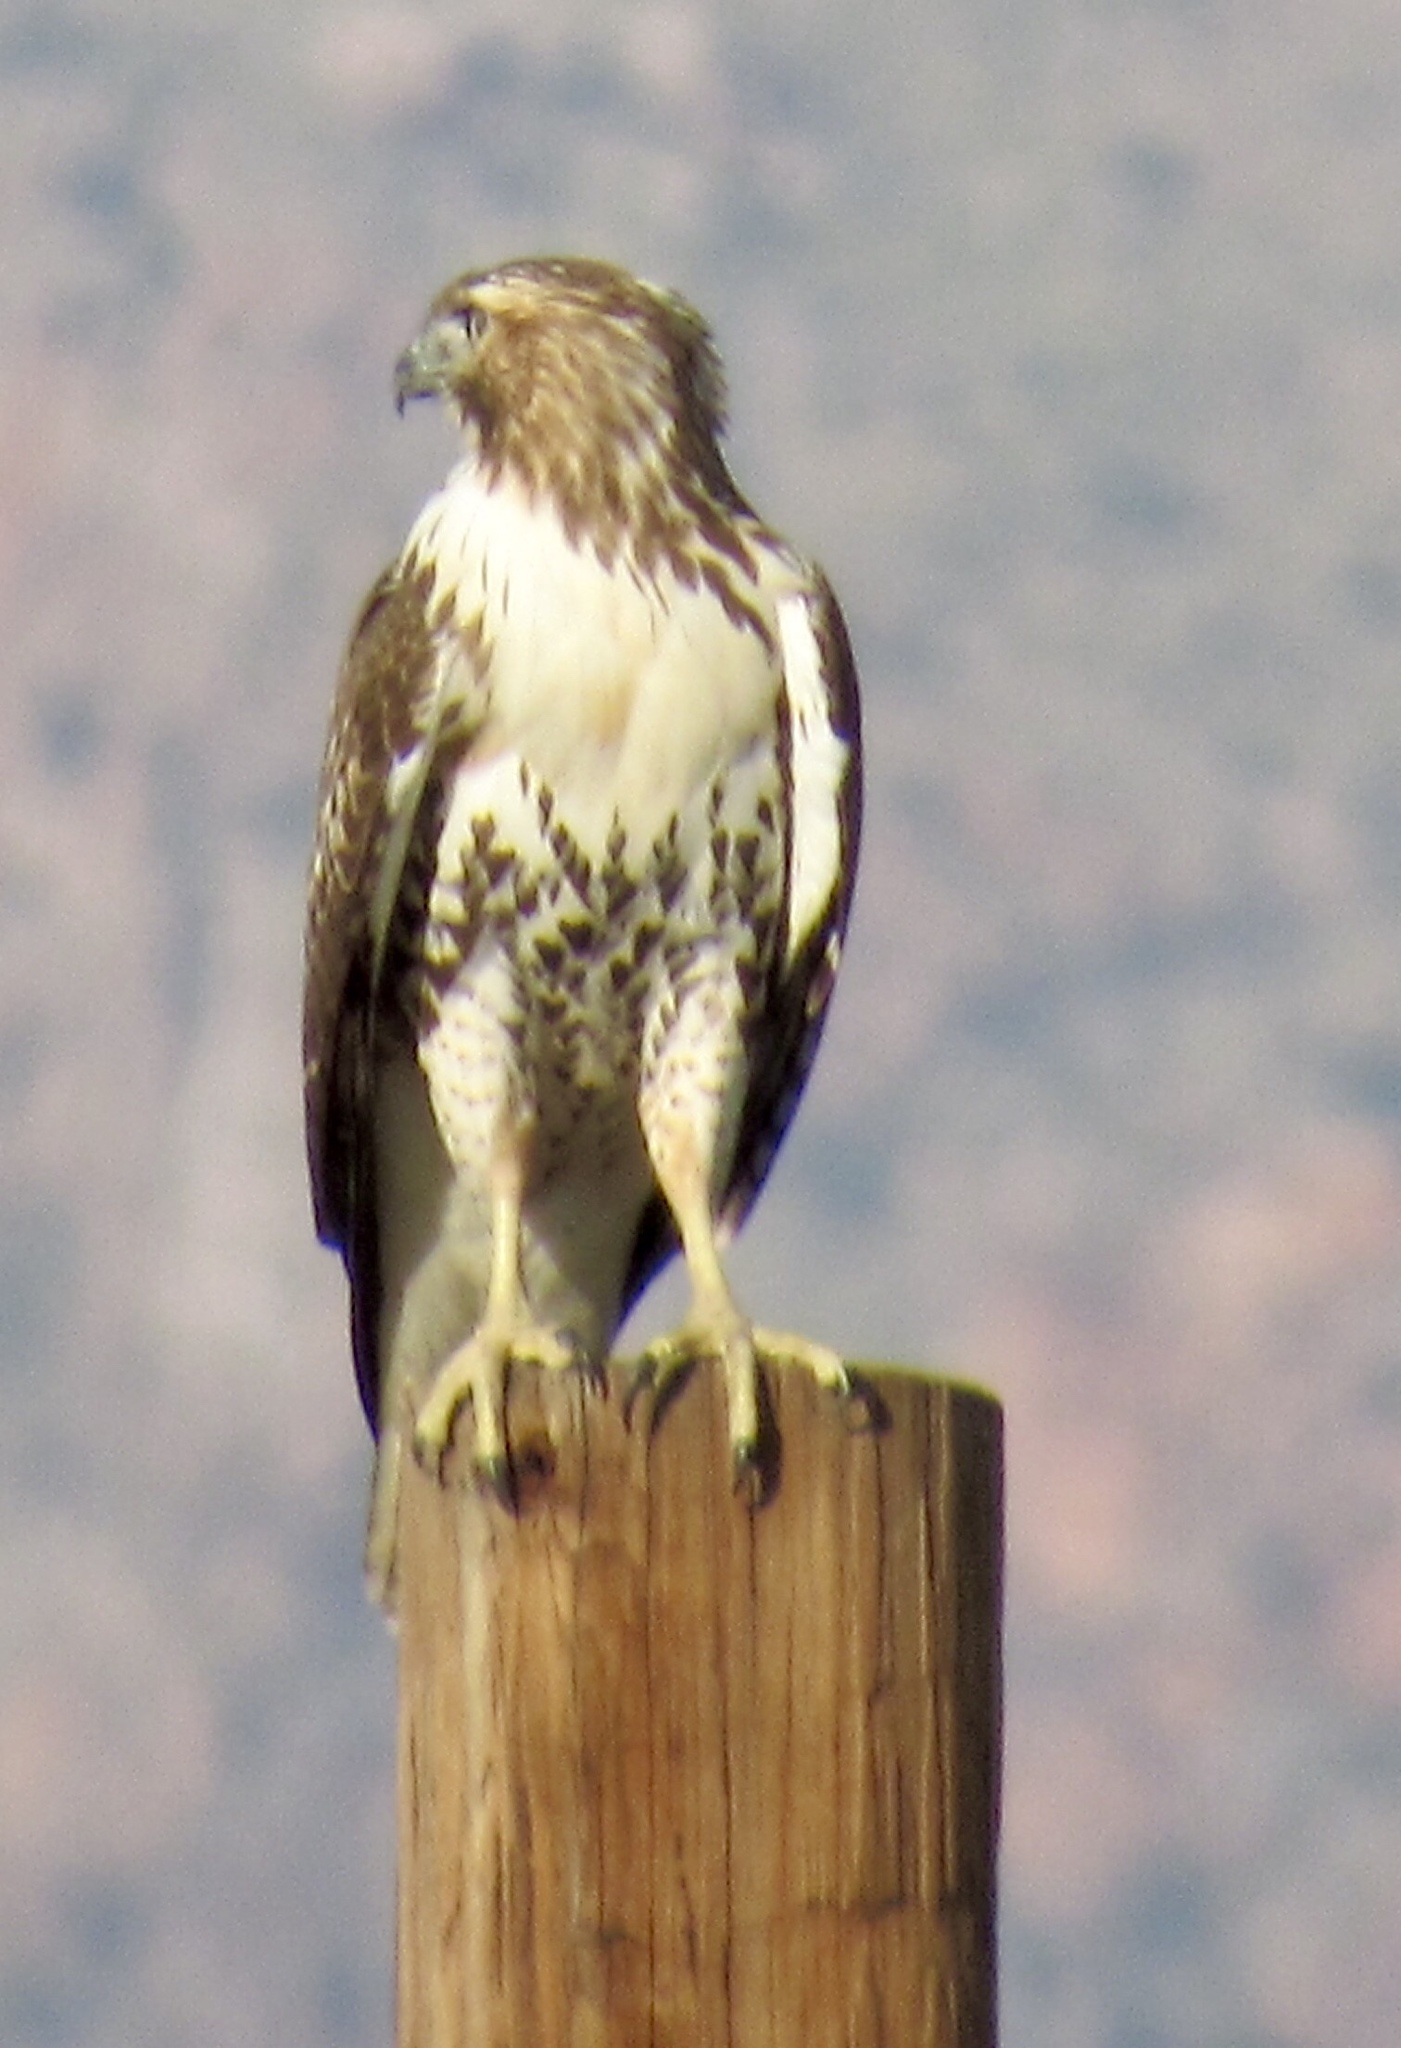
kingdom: Animalia
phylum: Chordata
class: Aves
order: Accipitriformes
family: Accipitridae
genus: Buteo
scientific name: Buteo jamaicensis
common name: Red-tailed hawk
